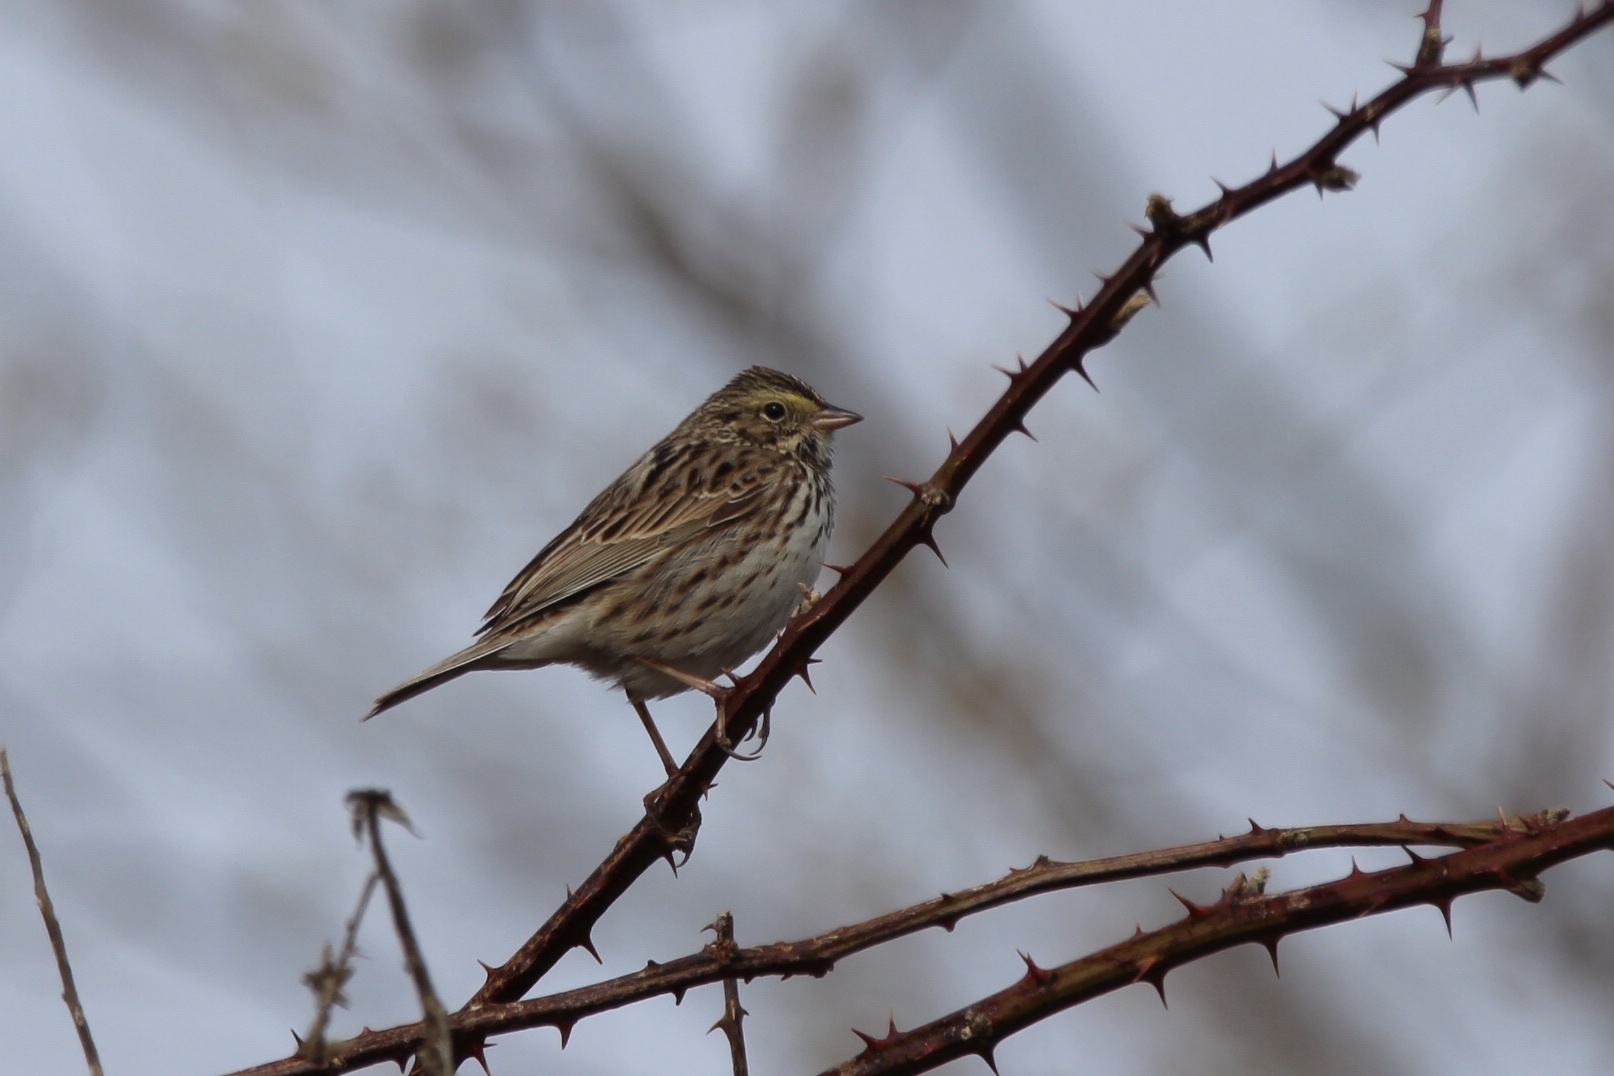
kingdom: Animalia
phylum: Chordata
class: Aves
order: Passeriformes
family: Passerellidae
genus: Passerculus
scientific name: Passerculus sandwichensis
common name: Savannah sparrow
